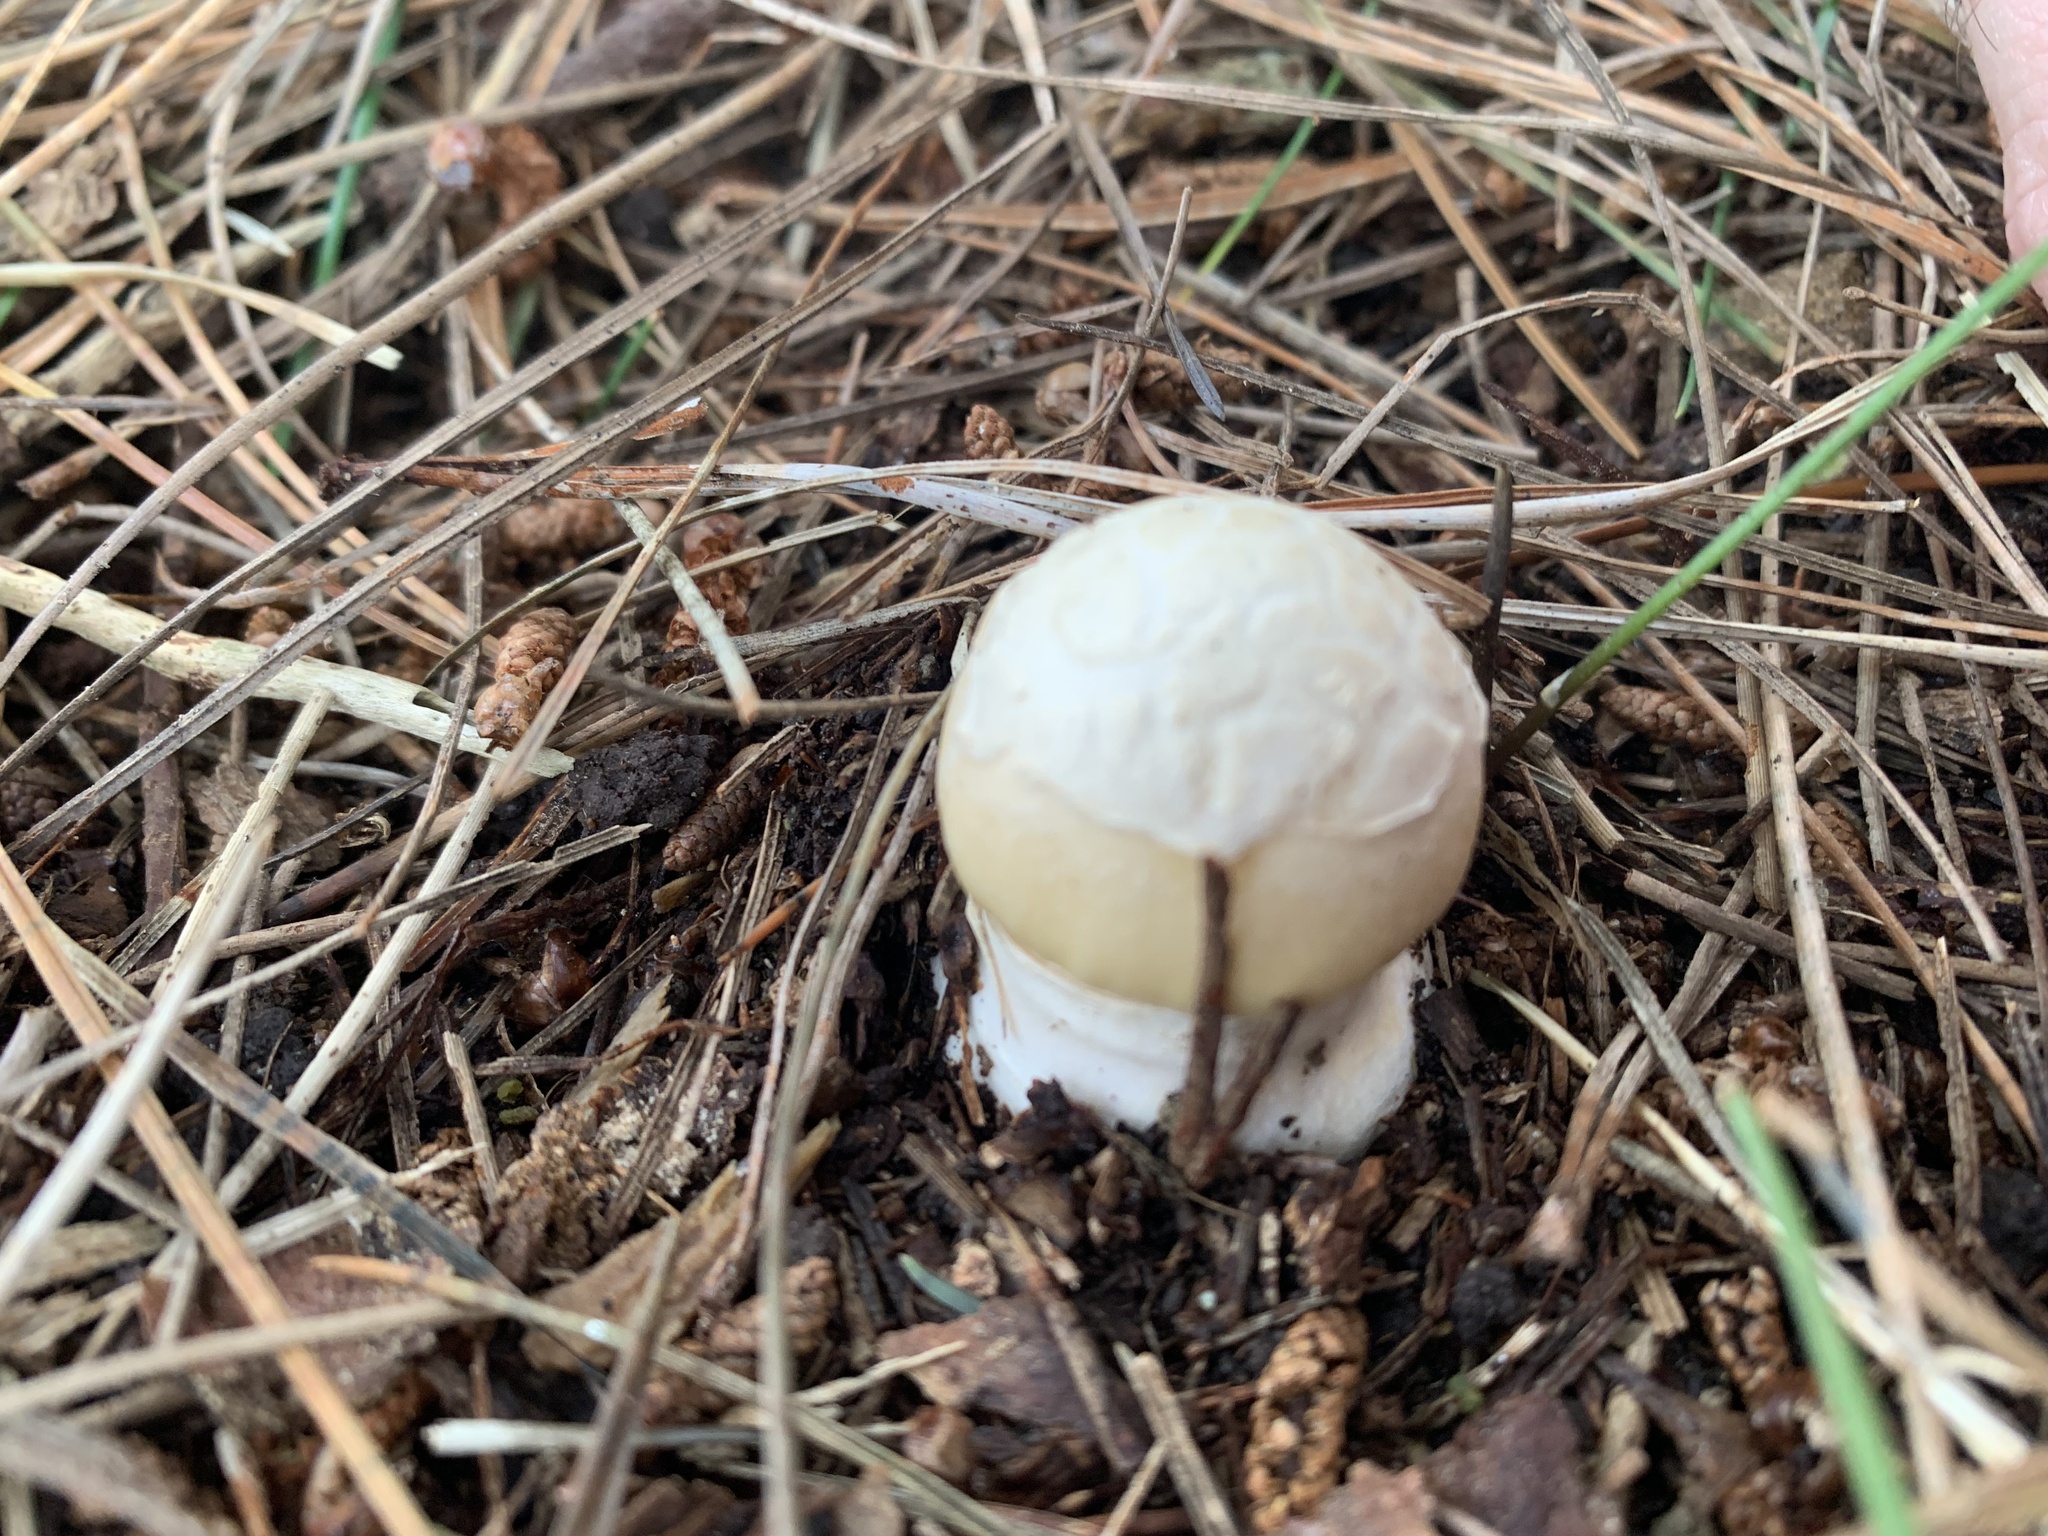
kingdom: Fungi
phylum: Basidiomycota
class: Agaricomycetes
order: Agaricales
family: Amanitaceae
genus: Amanita
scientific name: Amanita gemmata
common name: Jewelled amanita
